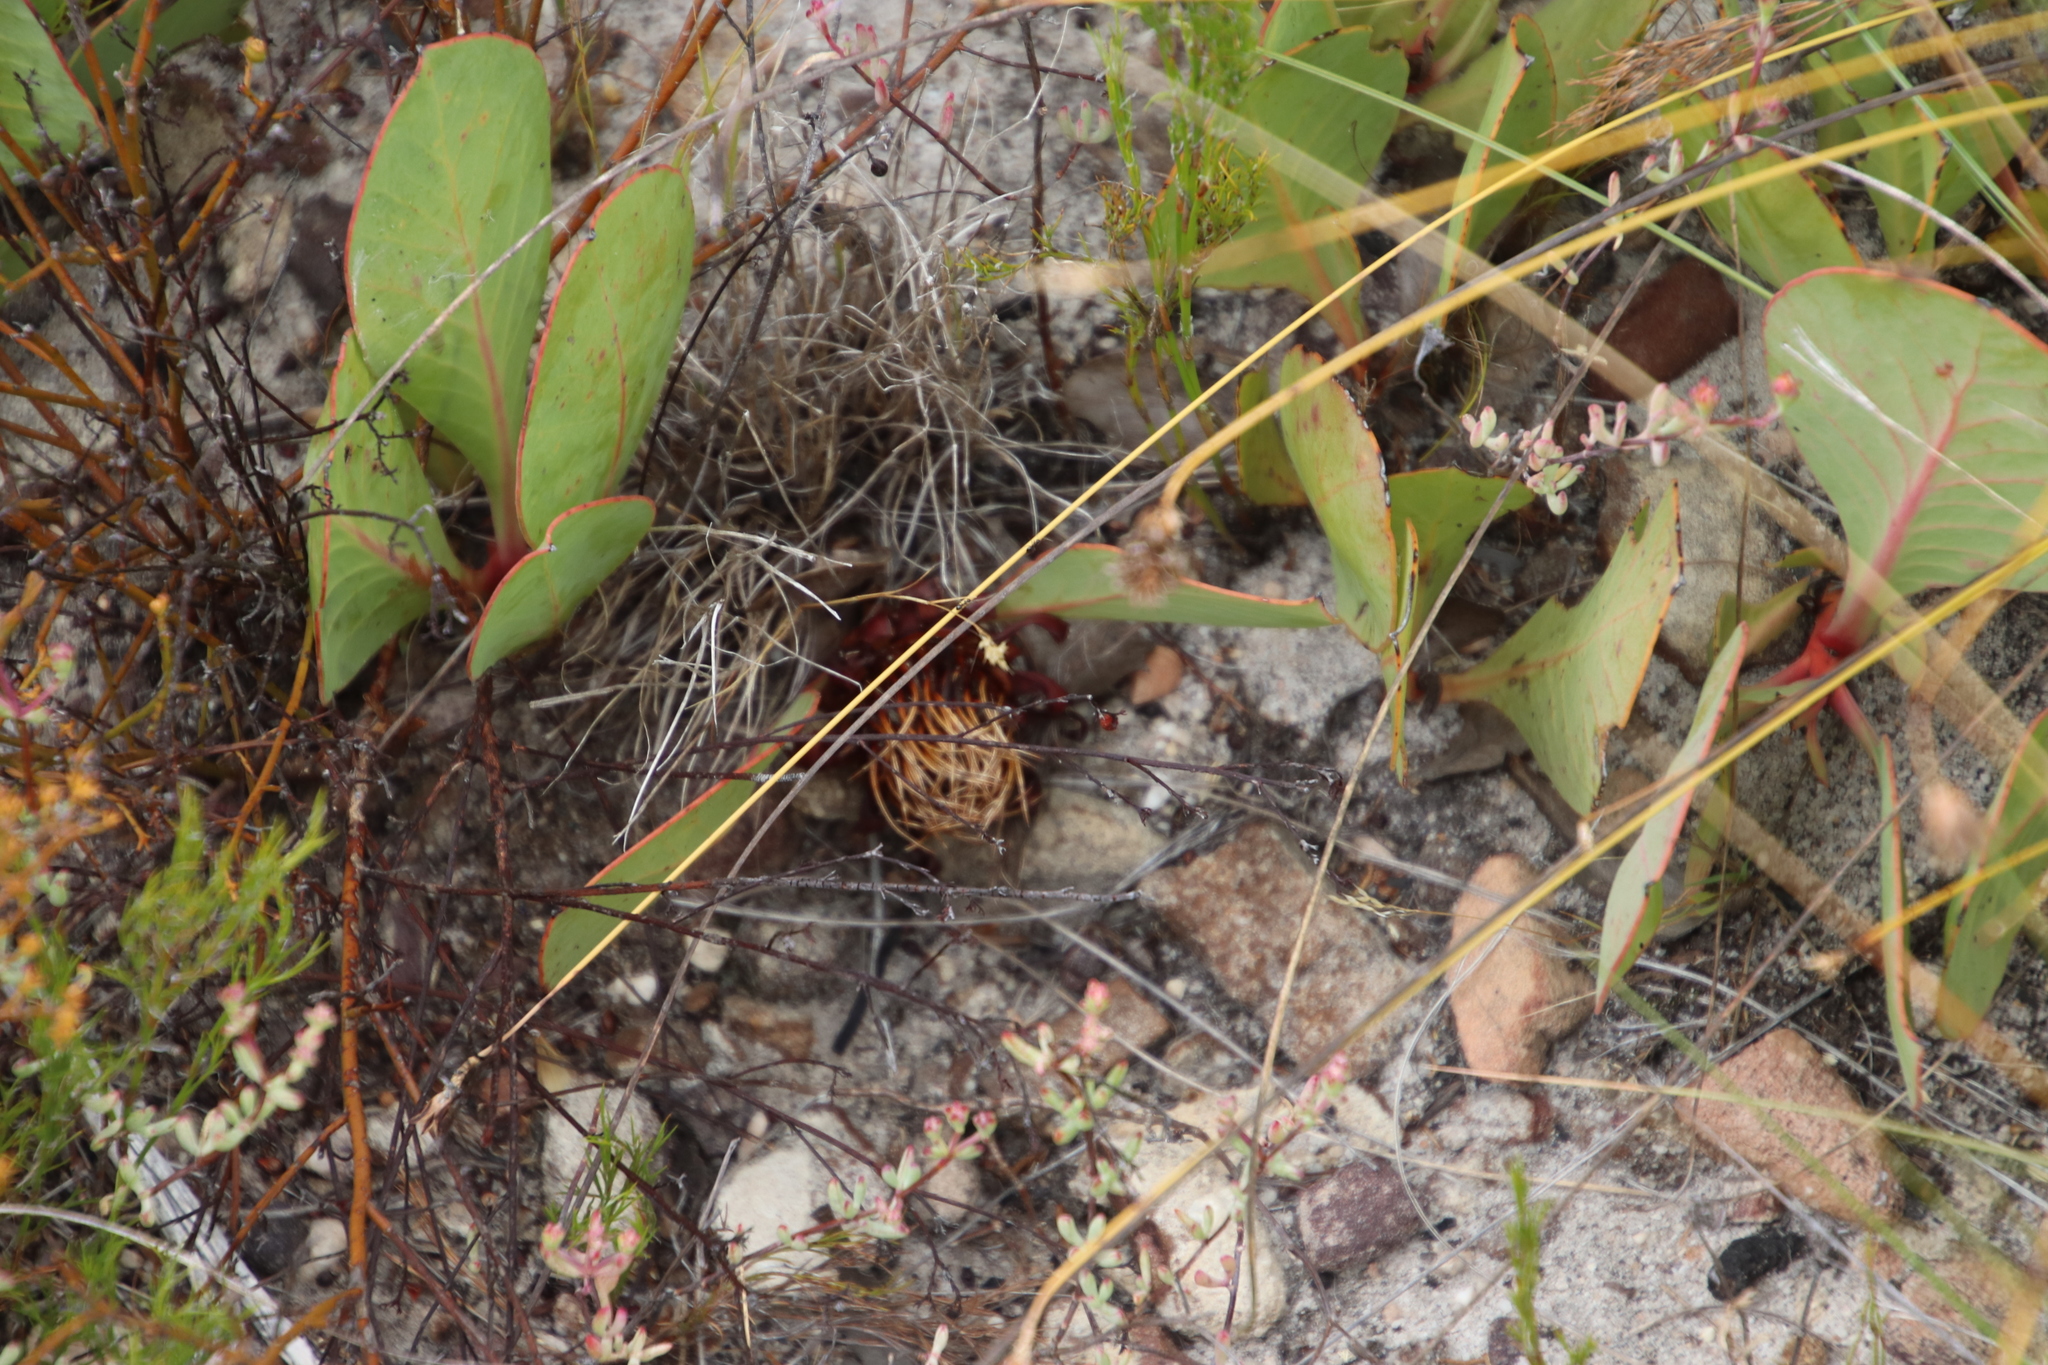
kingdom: Plantae
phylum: Tracheophyta
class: Magnoliopsida
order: Proteales
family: Proteaceae
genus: Protea
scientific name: Protea acaulos
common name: Common ground sugarbush
